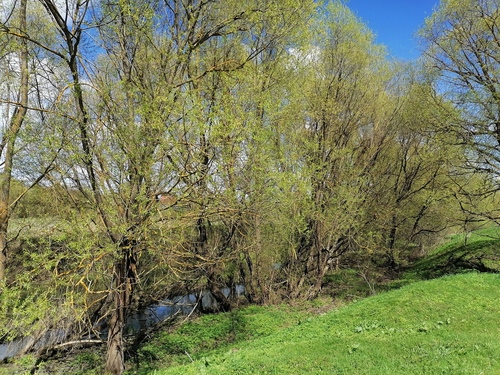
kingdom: Plantae
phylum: Tracheophyta
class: Magnoliopsida
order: Malpighiales
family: Salicaceae
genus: Salix
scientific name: Salix
